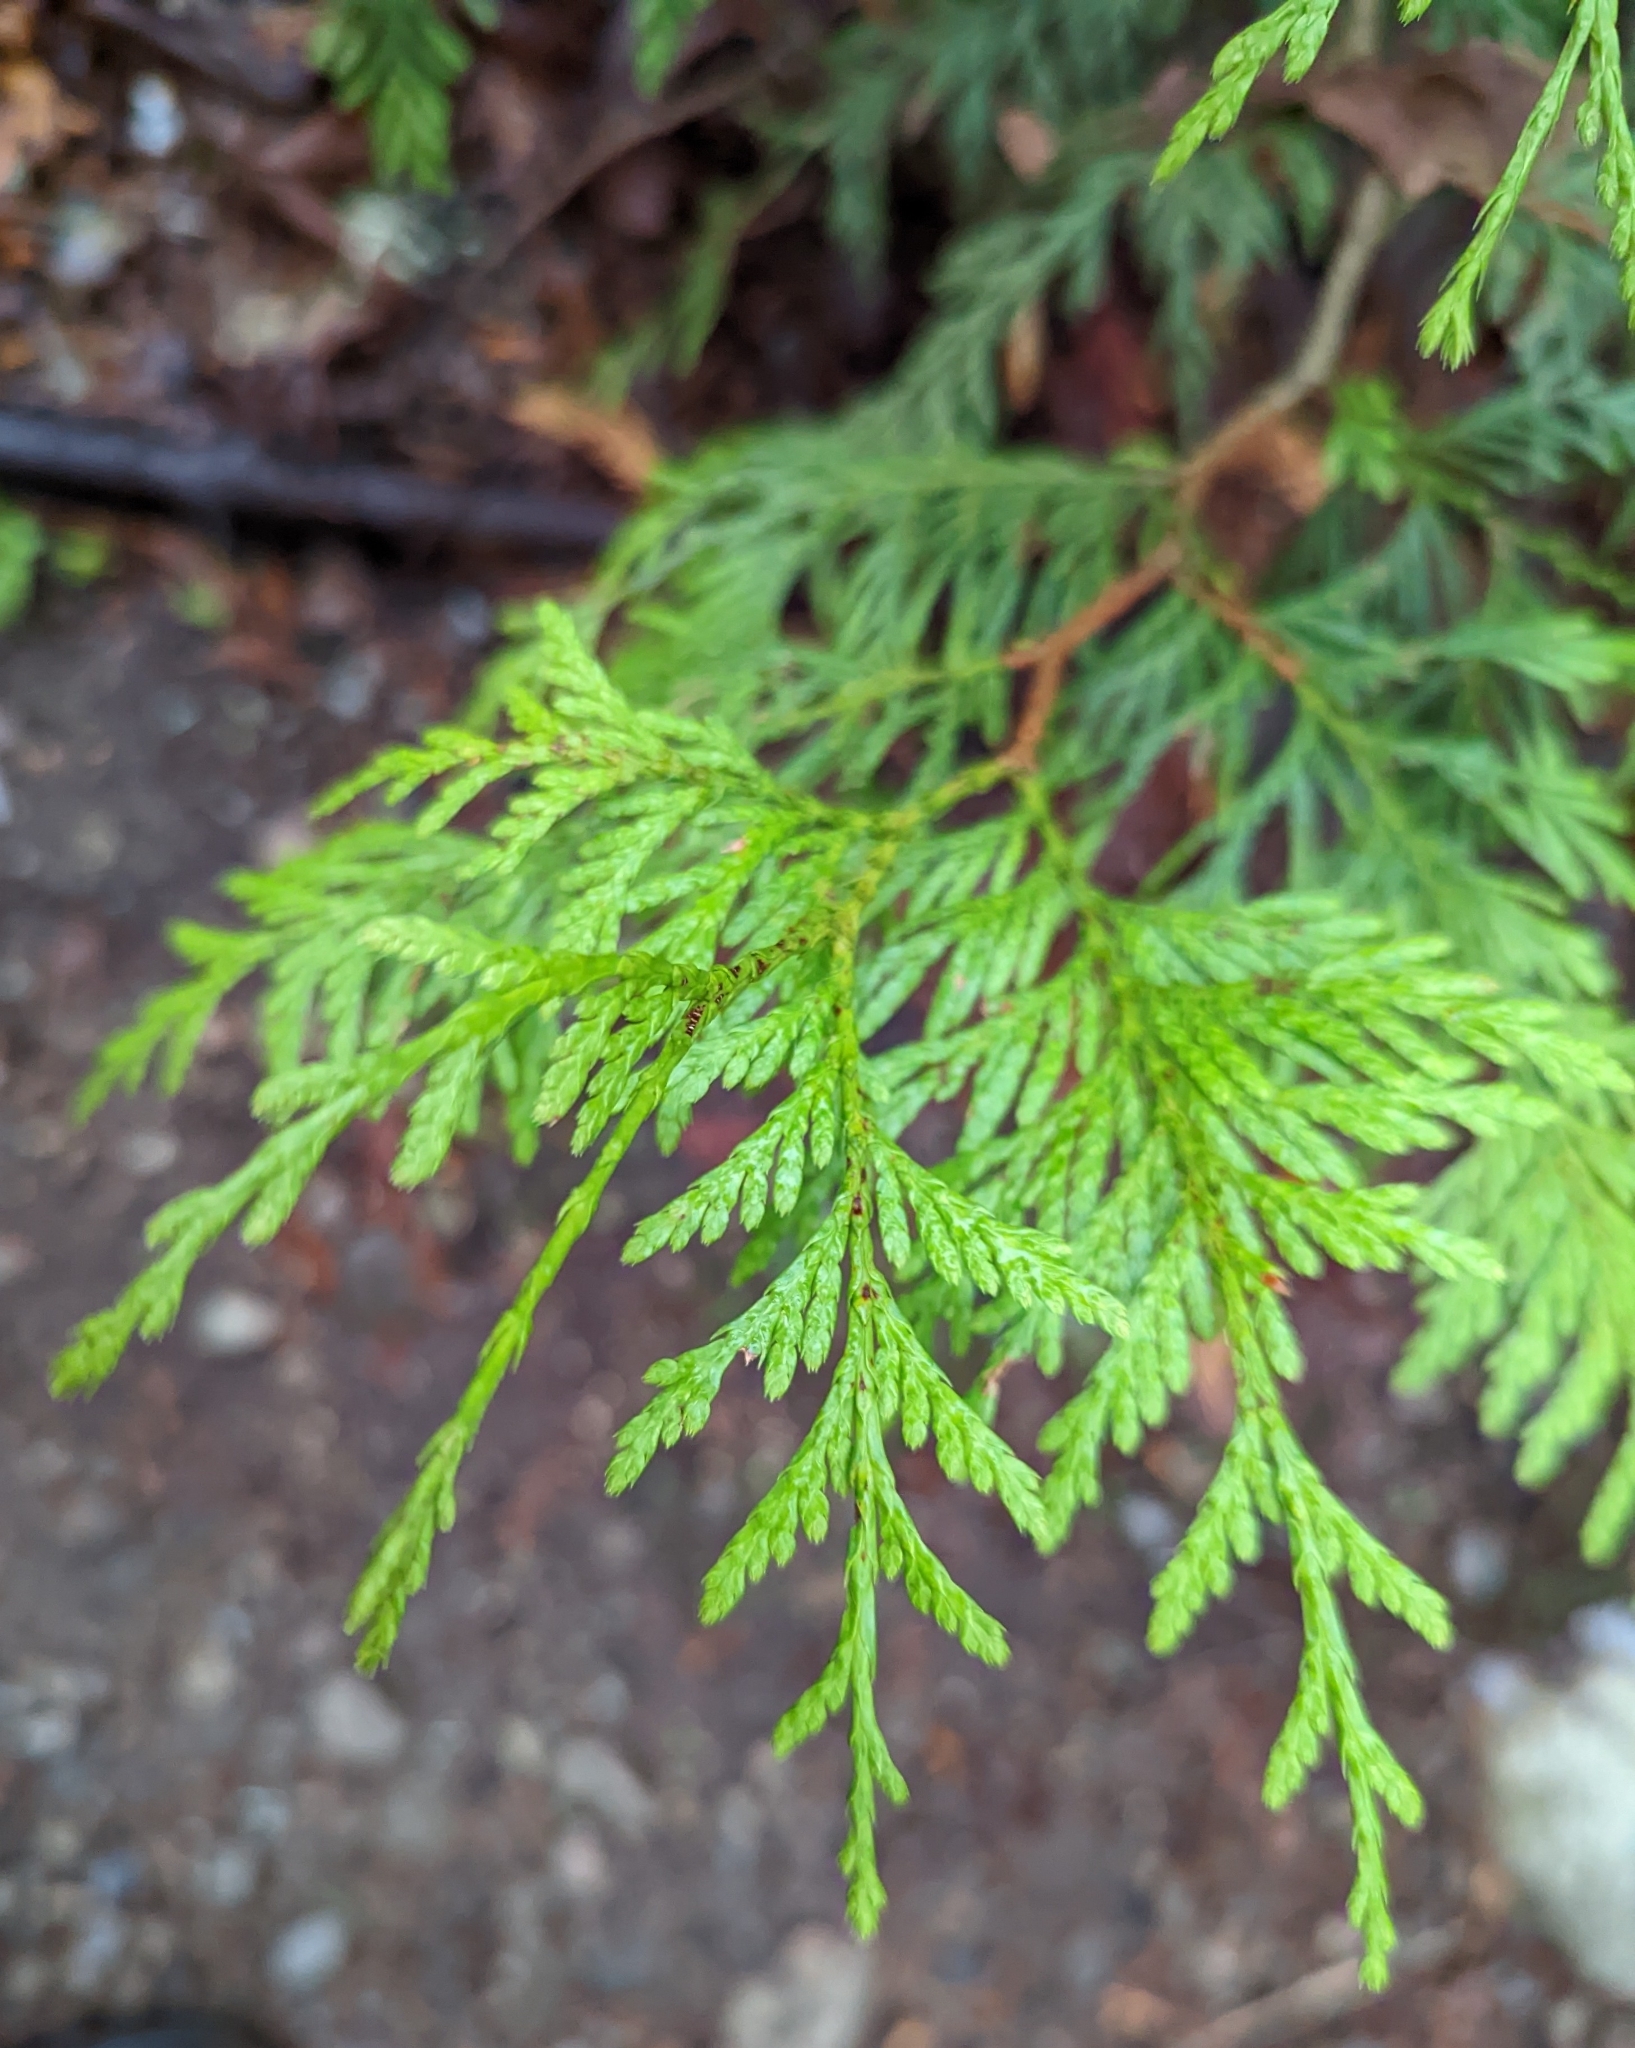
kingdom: Plantae
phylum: Tracheophyta
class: Pinopsida
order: Pinales
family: Cupressaceae
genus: Thuja
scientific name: Thuja plicata
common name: Western red-cedar
